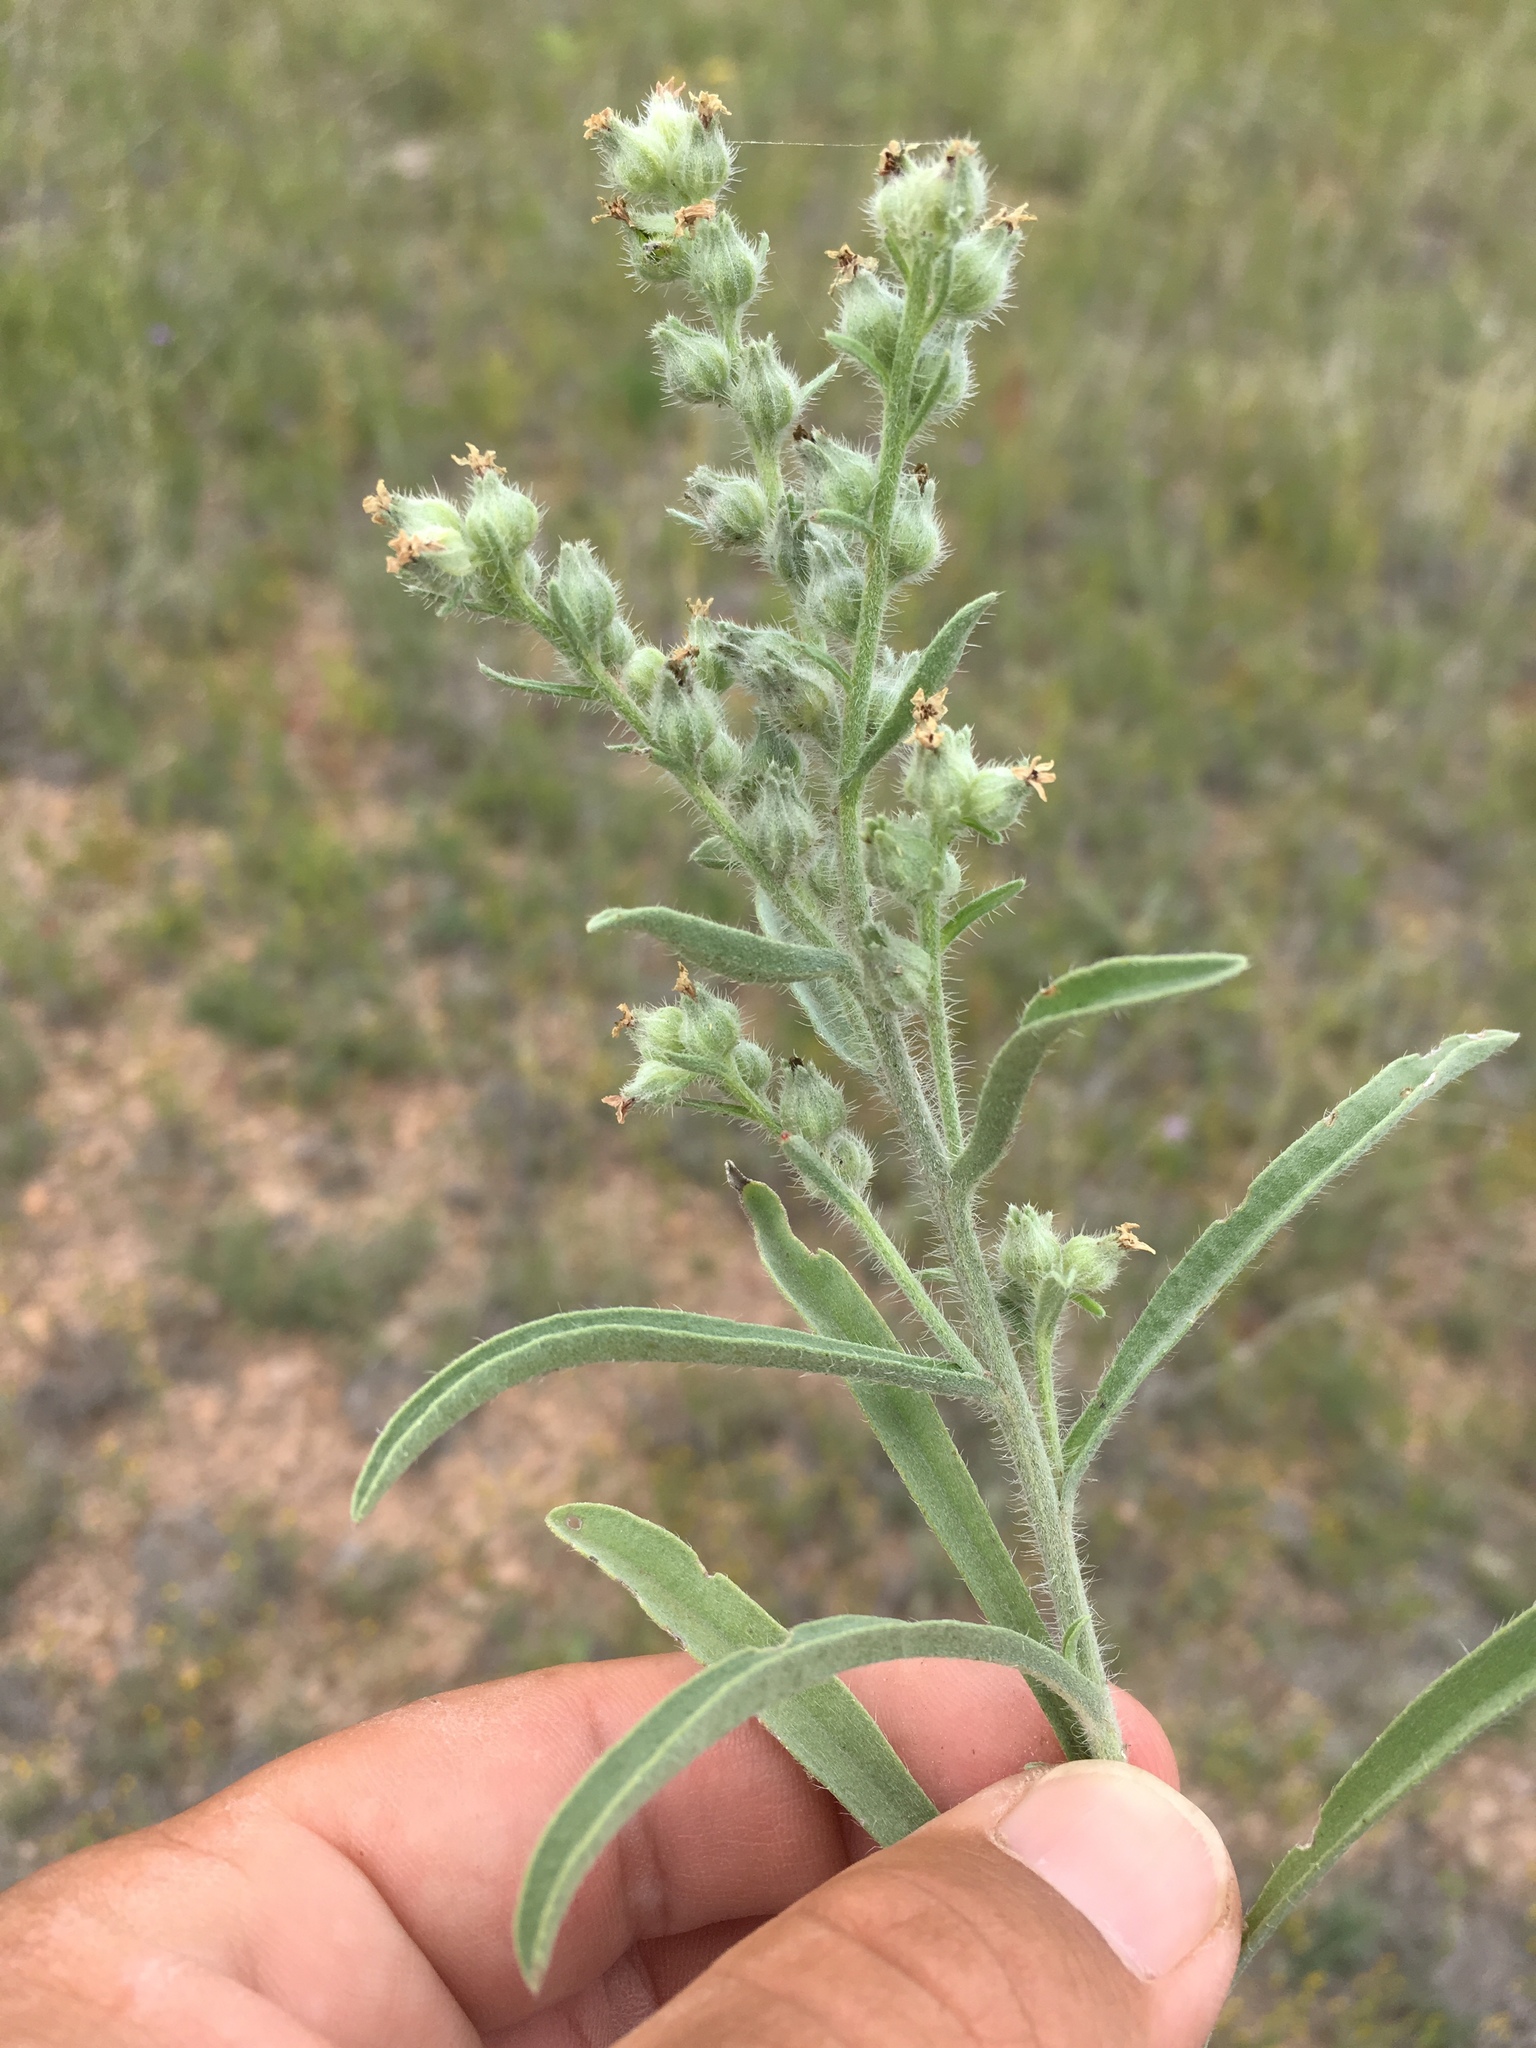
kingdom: Plantae
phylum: Tracheophyta
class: Magnoliopsida
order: Boraginales
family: Boraginaceae
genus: Oreocarya
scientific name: Oreocarya suffruticosa
